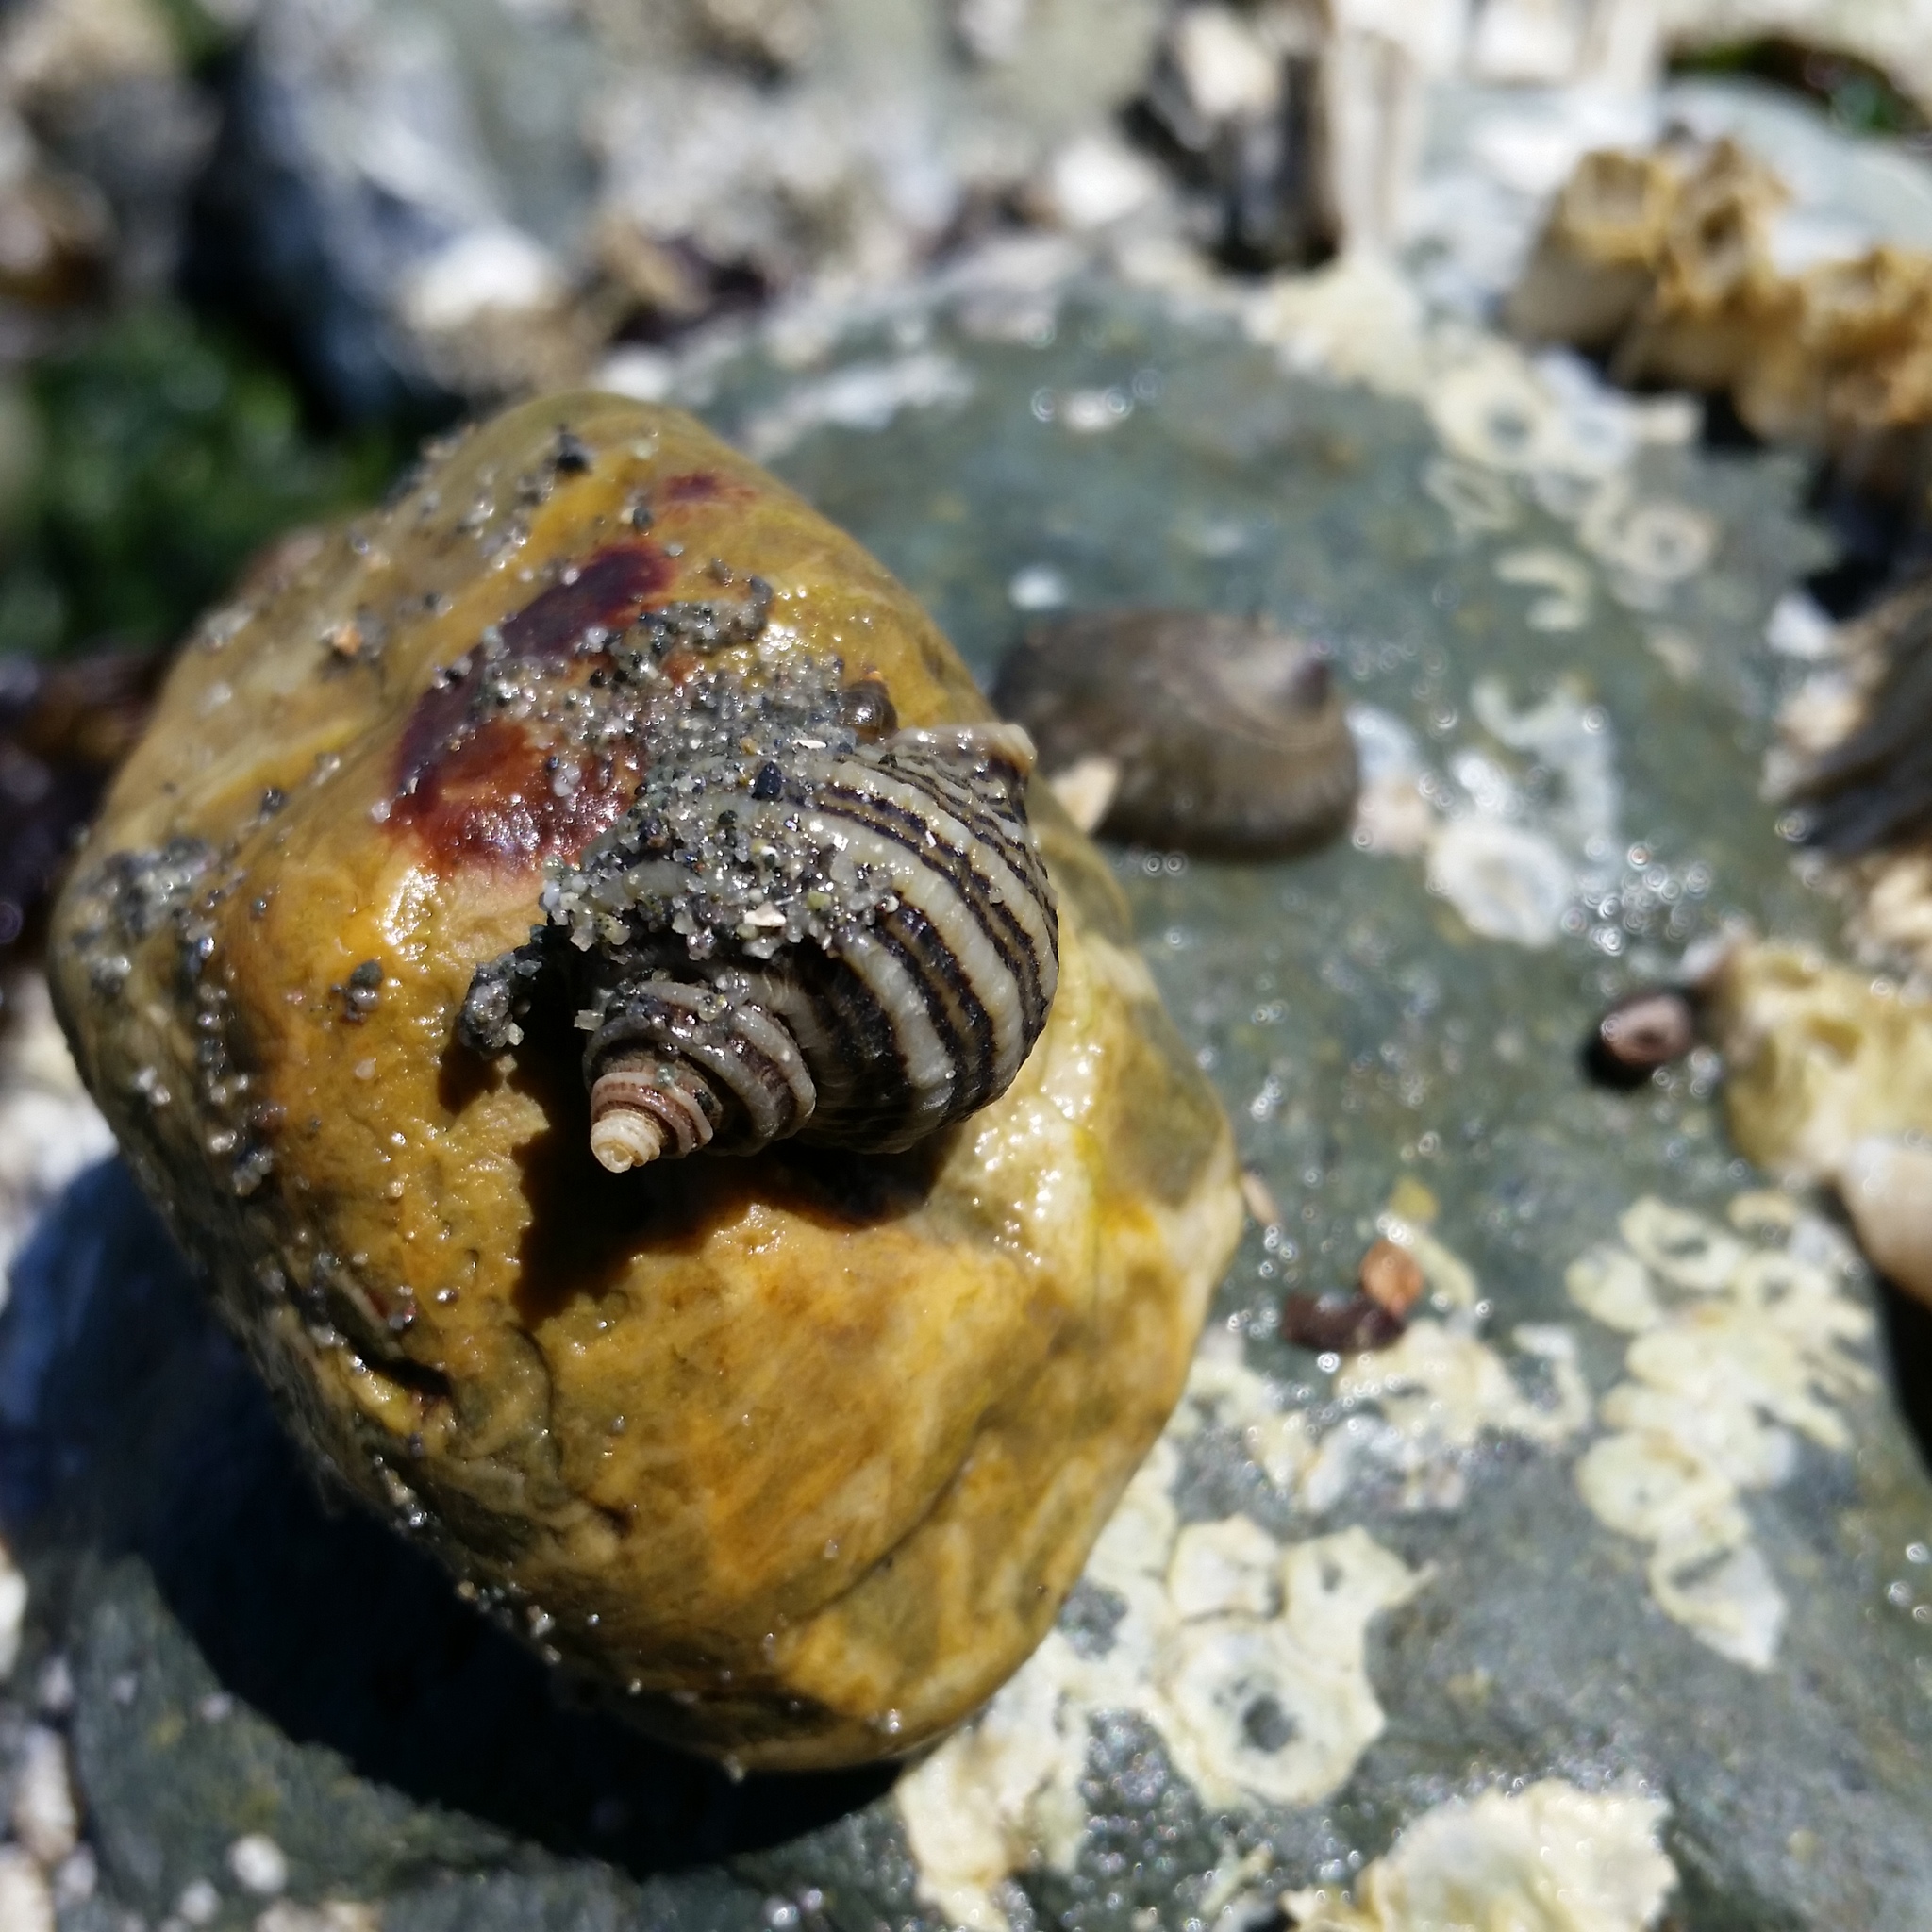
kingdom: Animalia
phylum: Mollusca
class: Gastropoda
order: Neogastropoda
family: Muricidae
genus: Nucella
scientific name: Nucella ostrina
